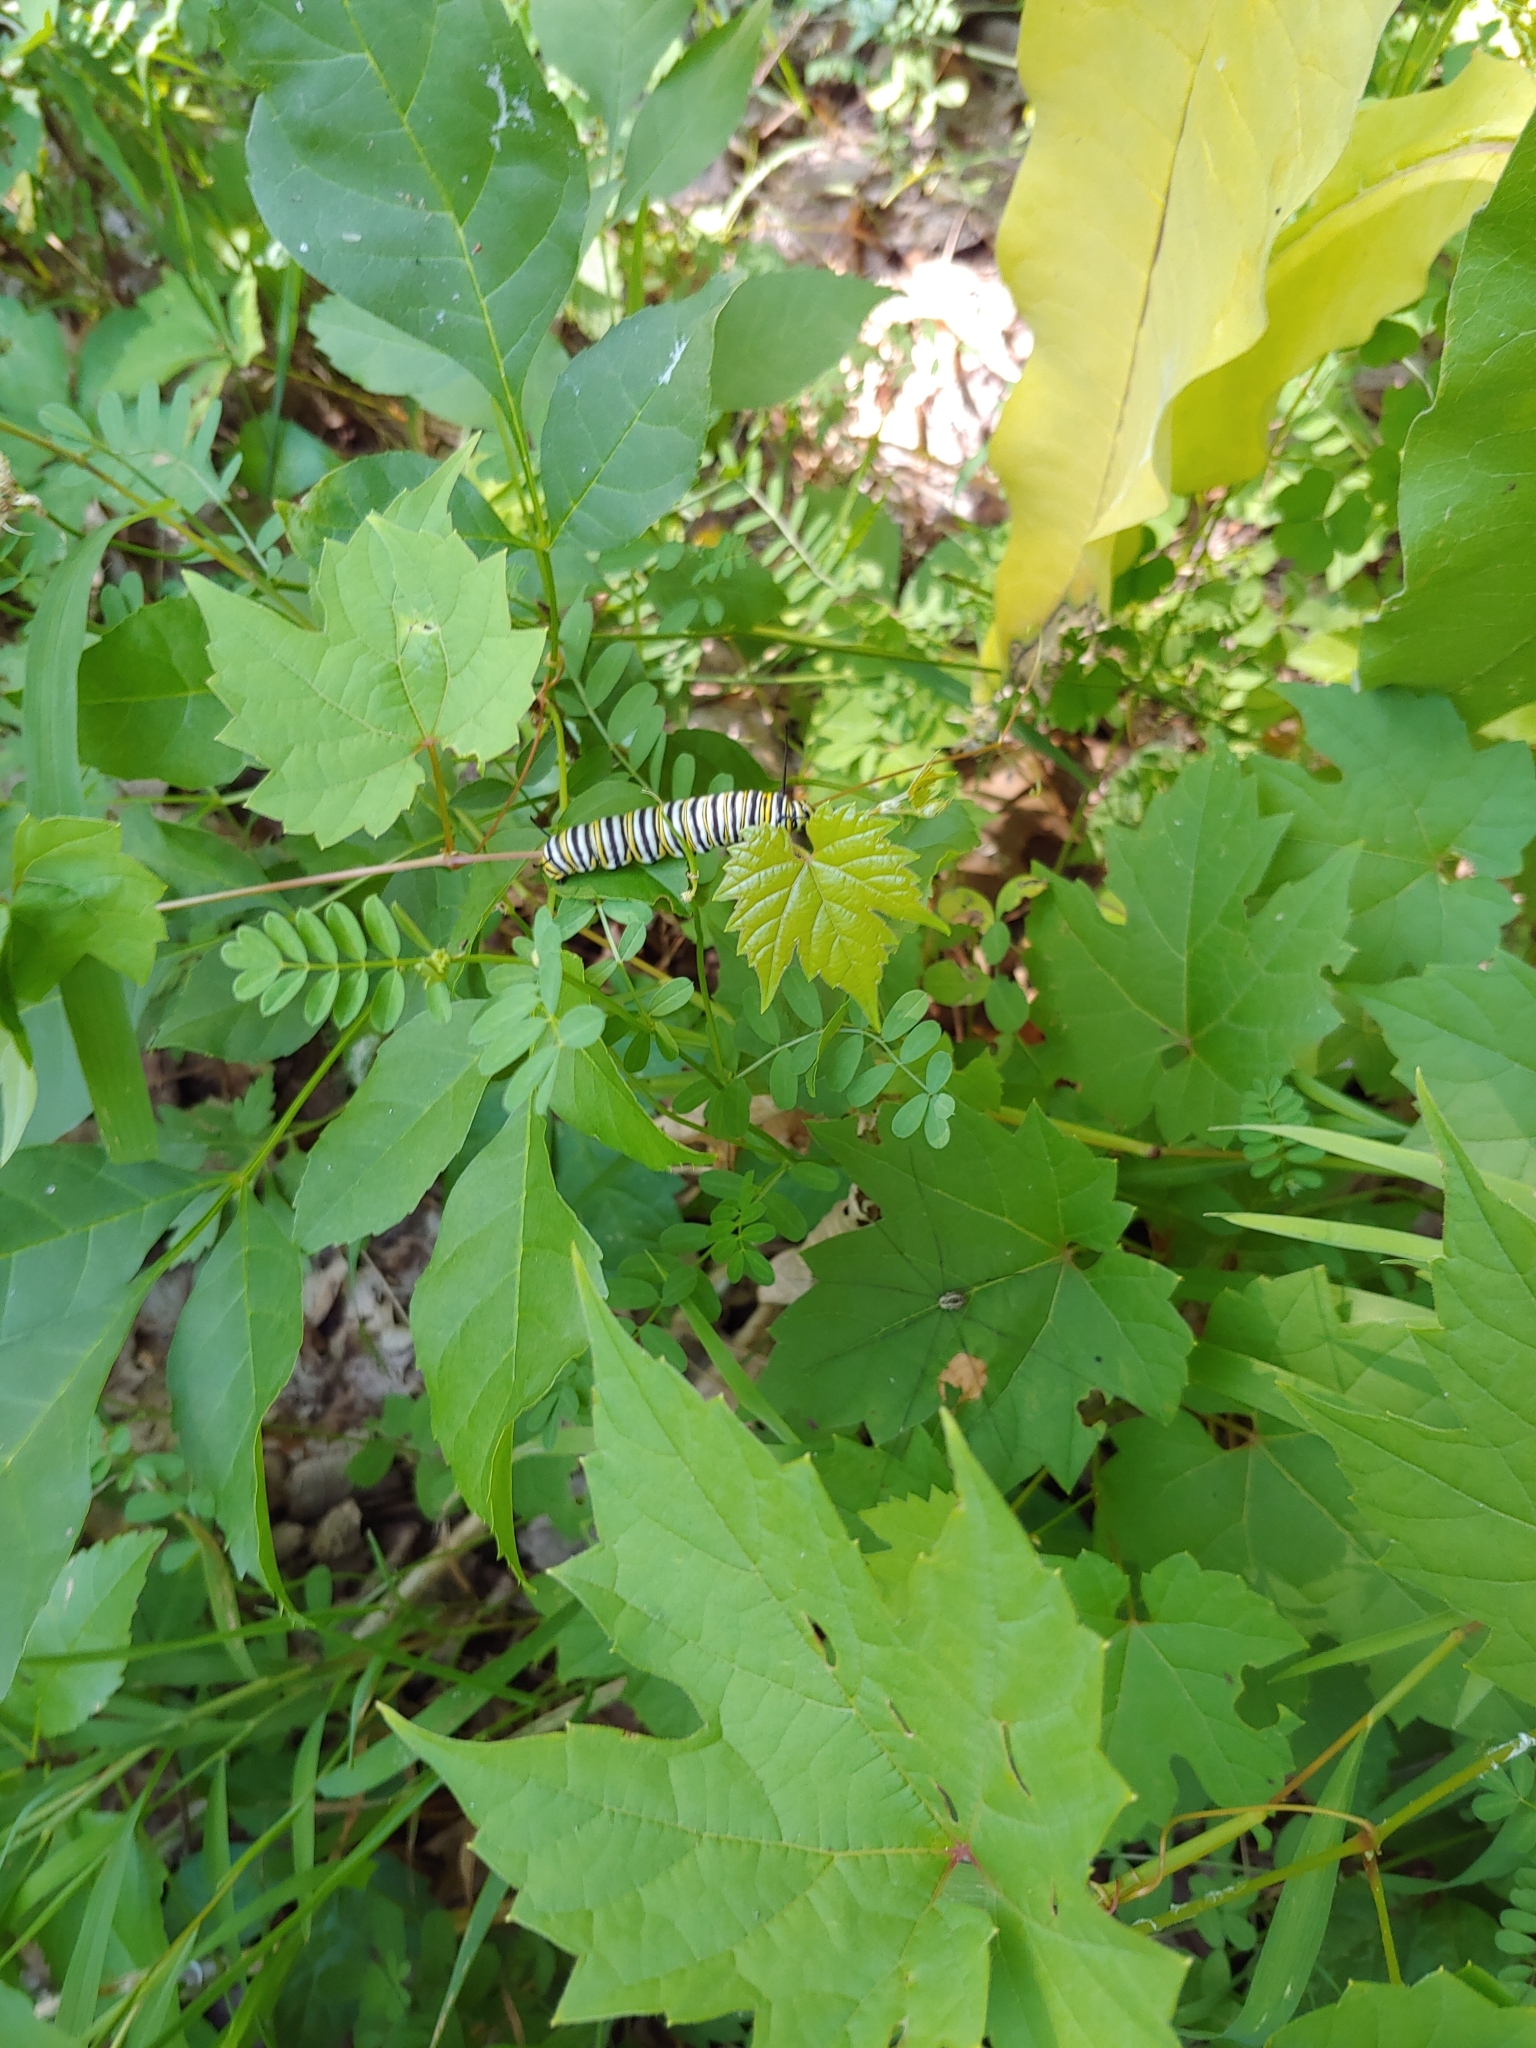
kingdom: Animalia
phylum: Arthropoda
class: Insecta
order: Lepidoptera
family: Nymphalidae
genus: Danaus
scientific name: Danaus plexippus
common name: Monarch
